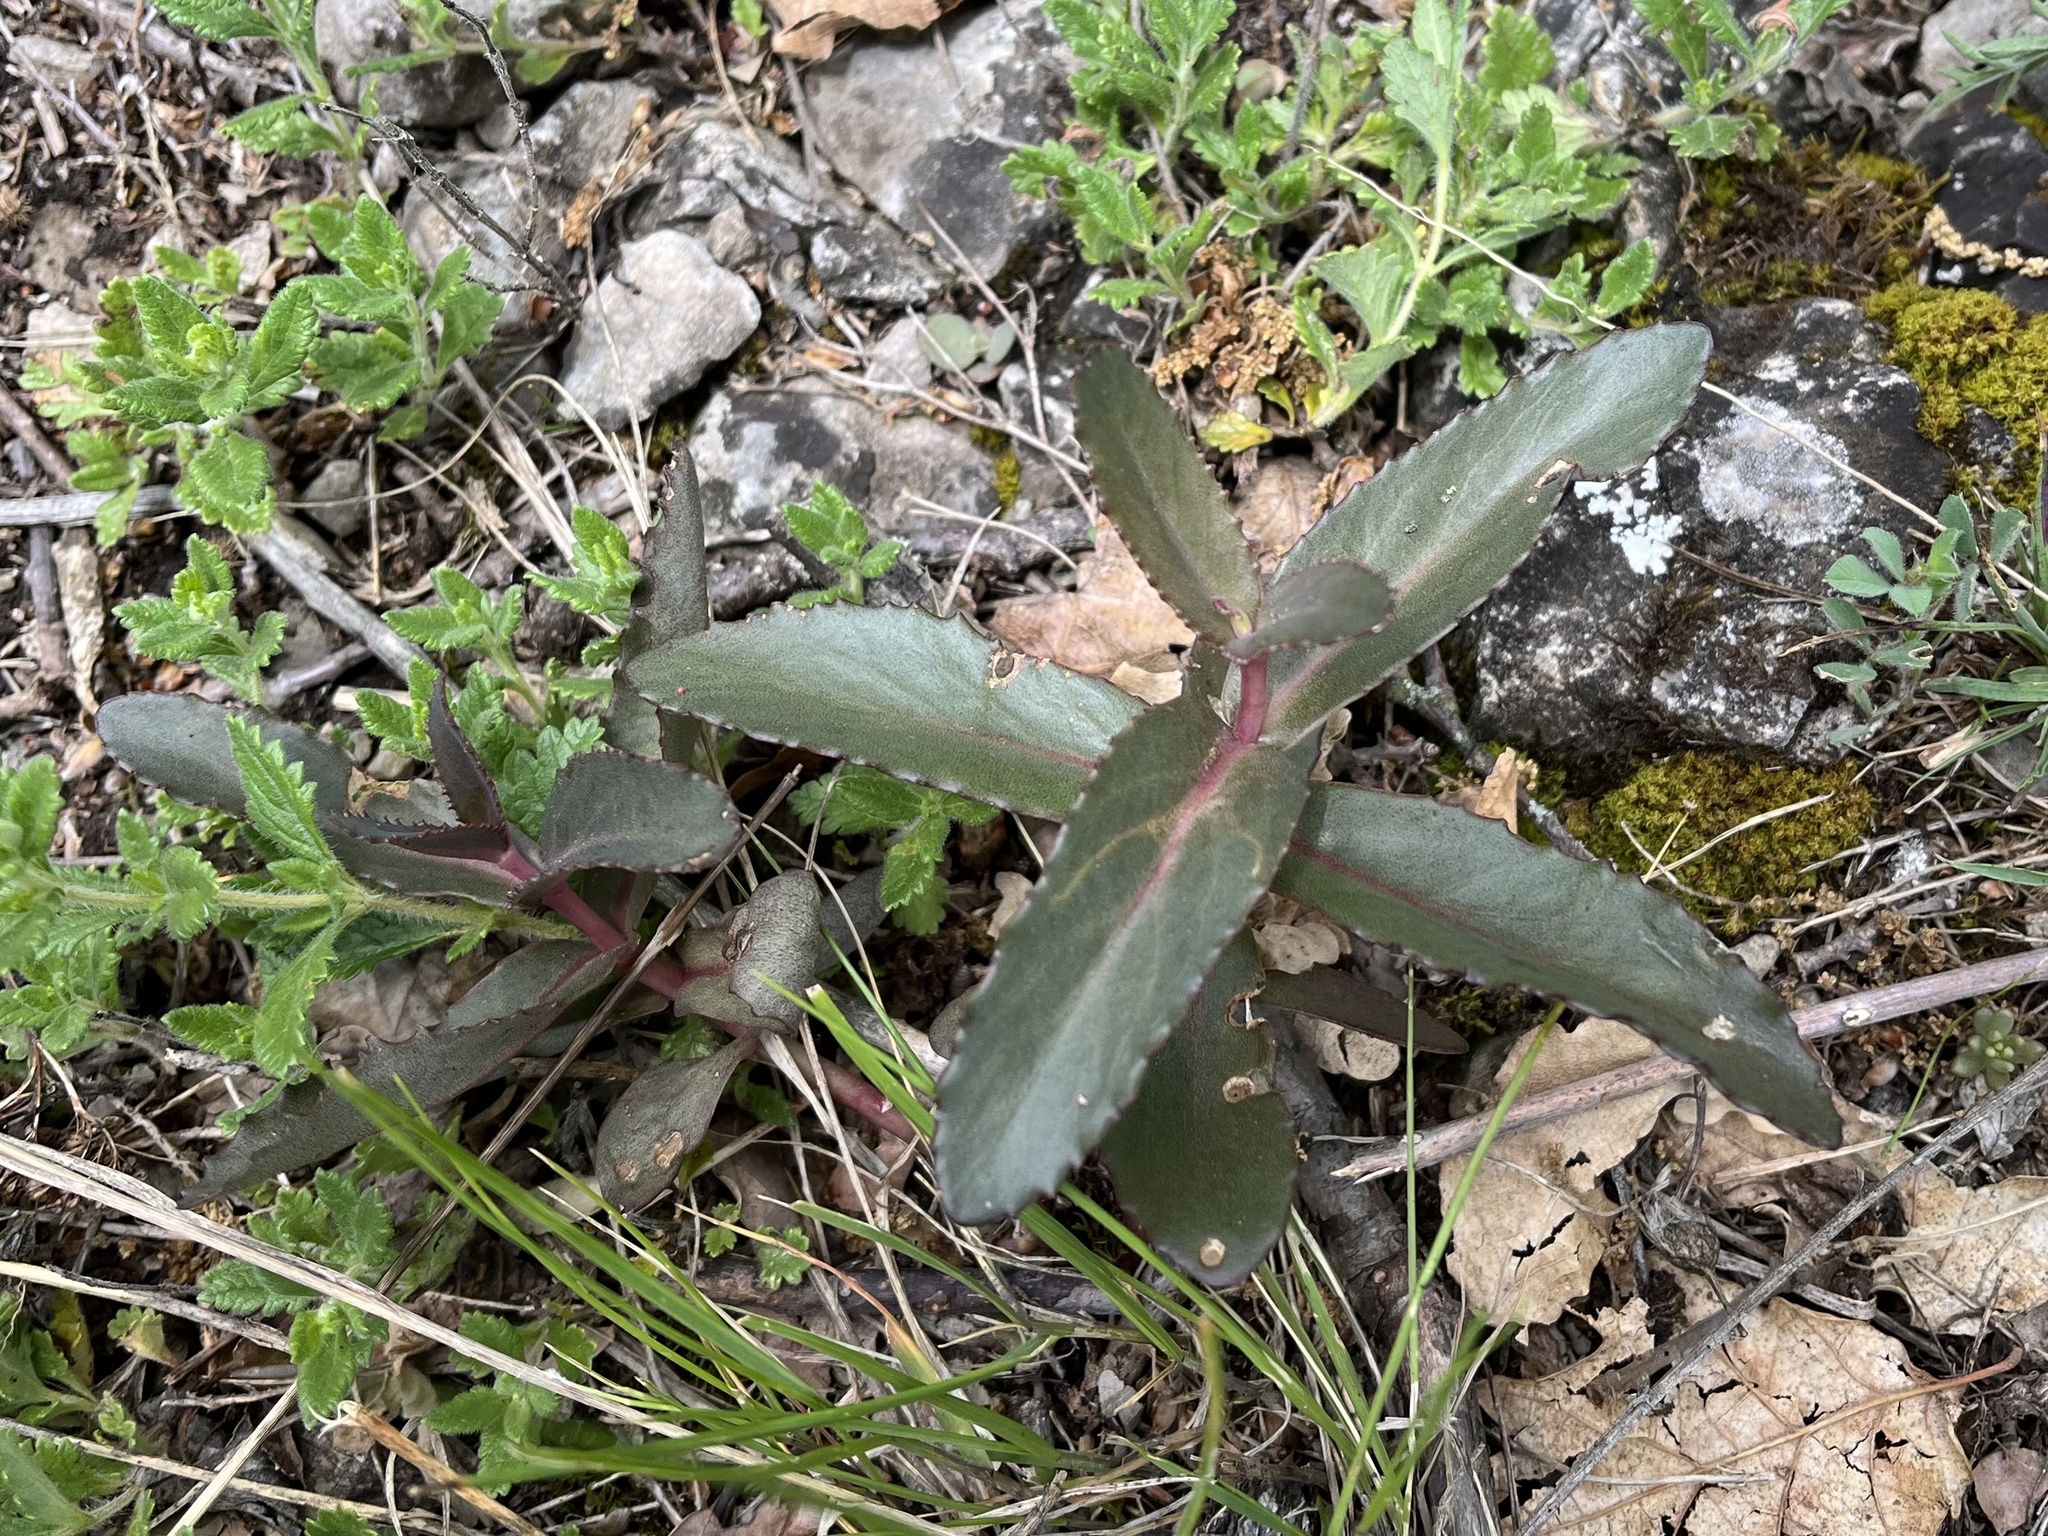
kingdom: Plantae
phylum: Tracheophyta
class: Magnoliopsida
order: Saxifragales
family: Crassulaceae
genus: Hylotelephium
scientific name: Hylotelephium maximum
